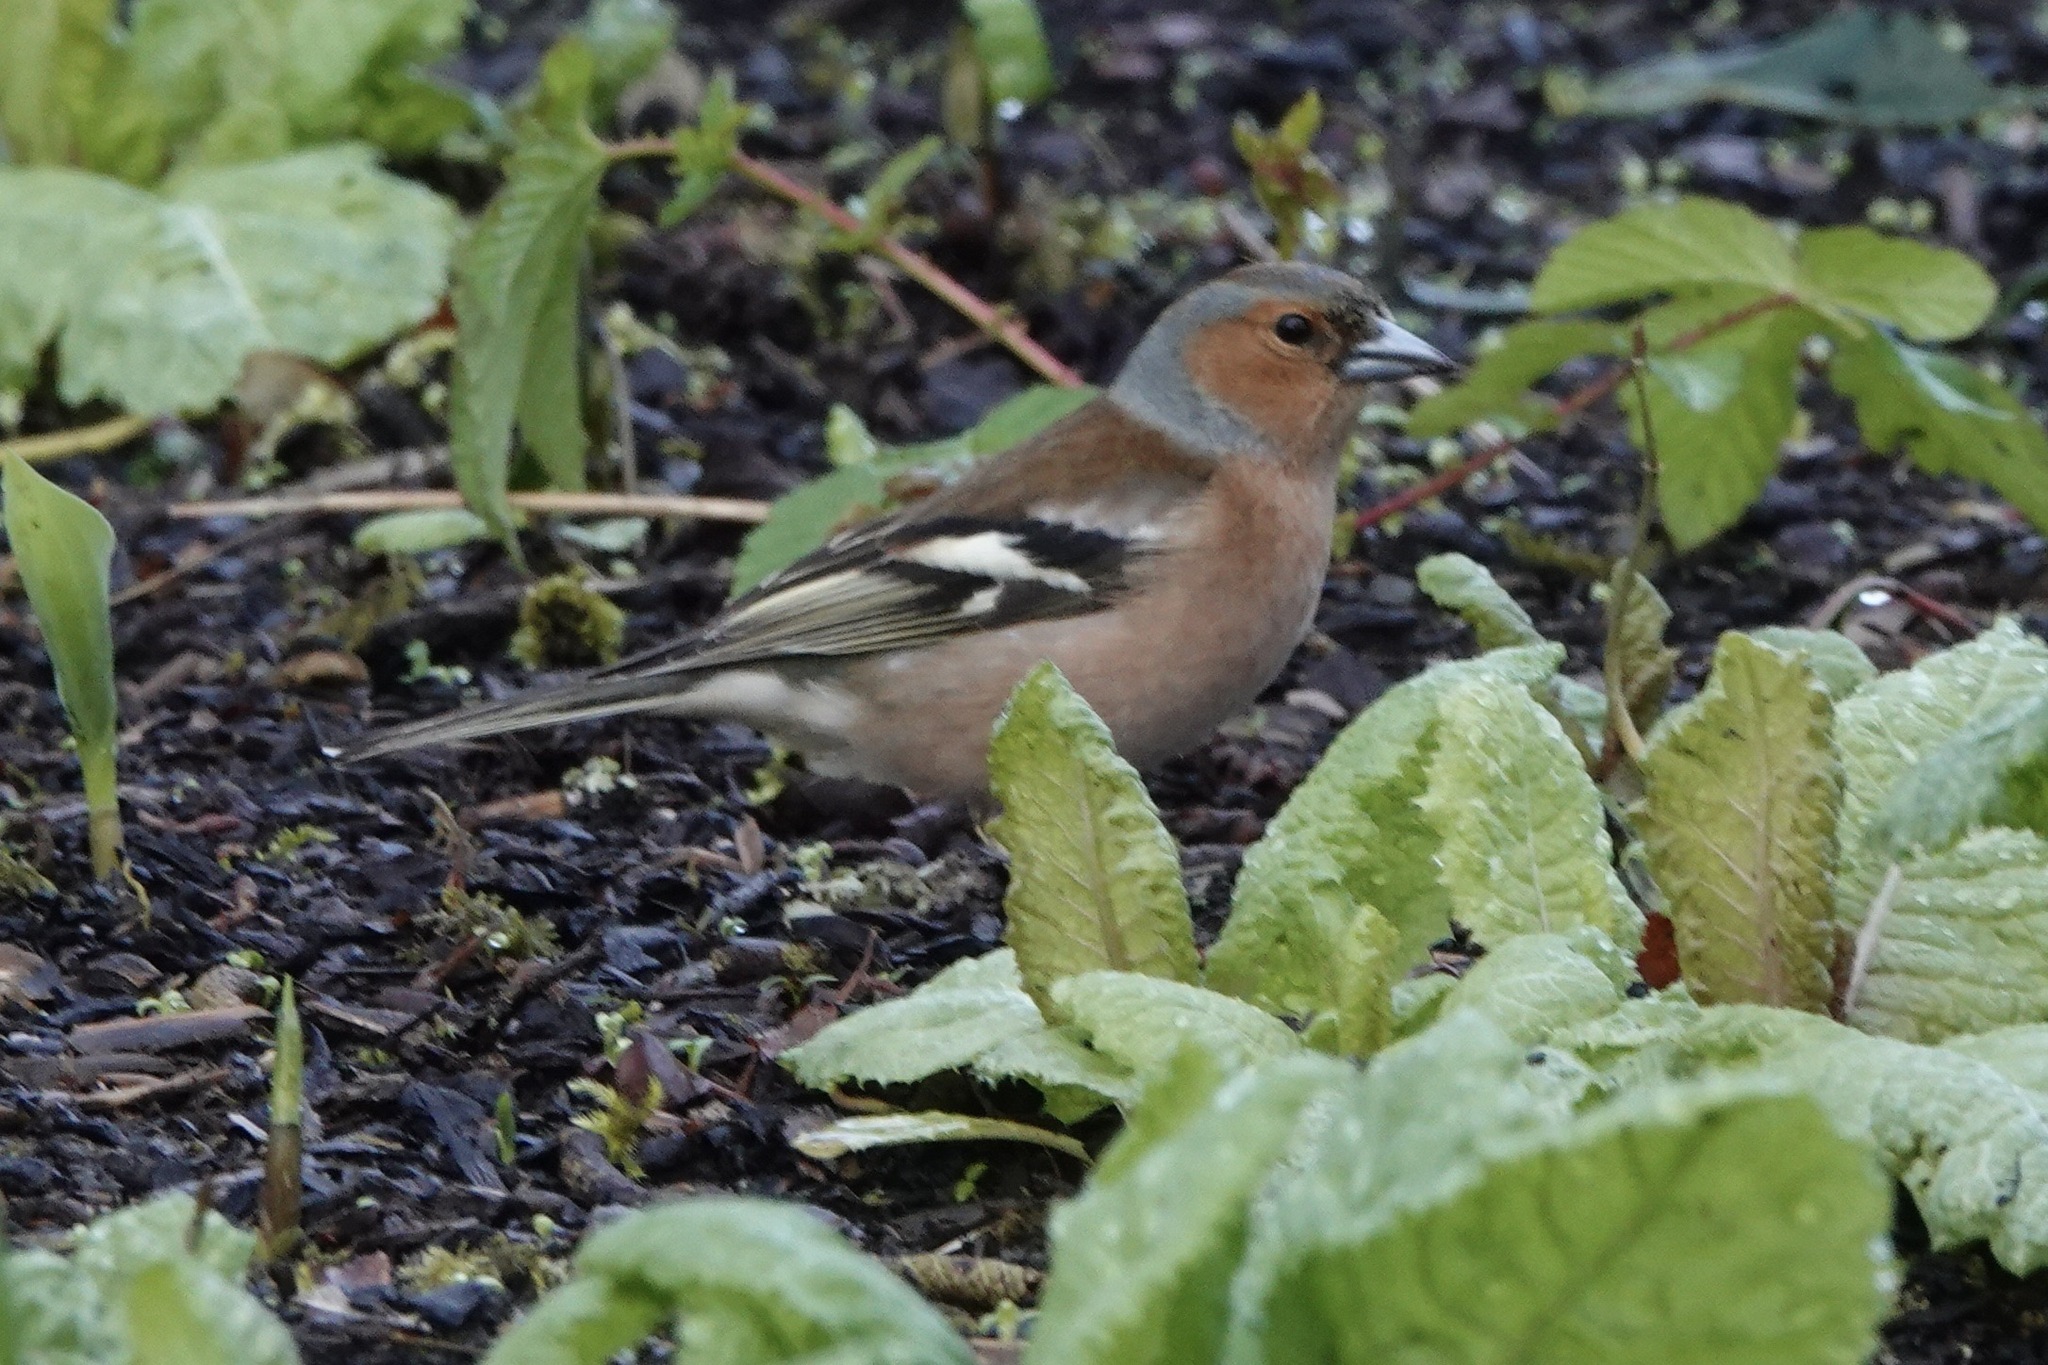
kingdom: Animalia
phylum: Chordata
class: Aves
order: Passeriformes
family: Fringillidae
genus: Fringilla
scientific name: Fringilla coelebs
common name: Common chaffinch
